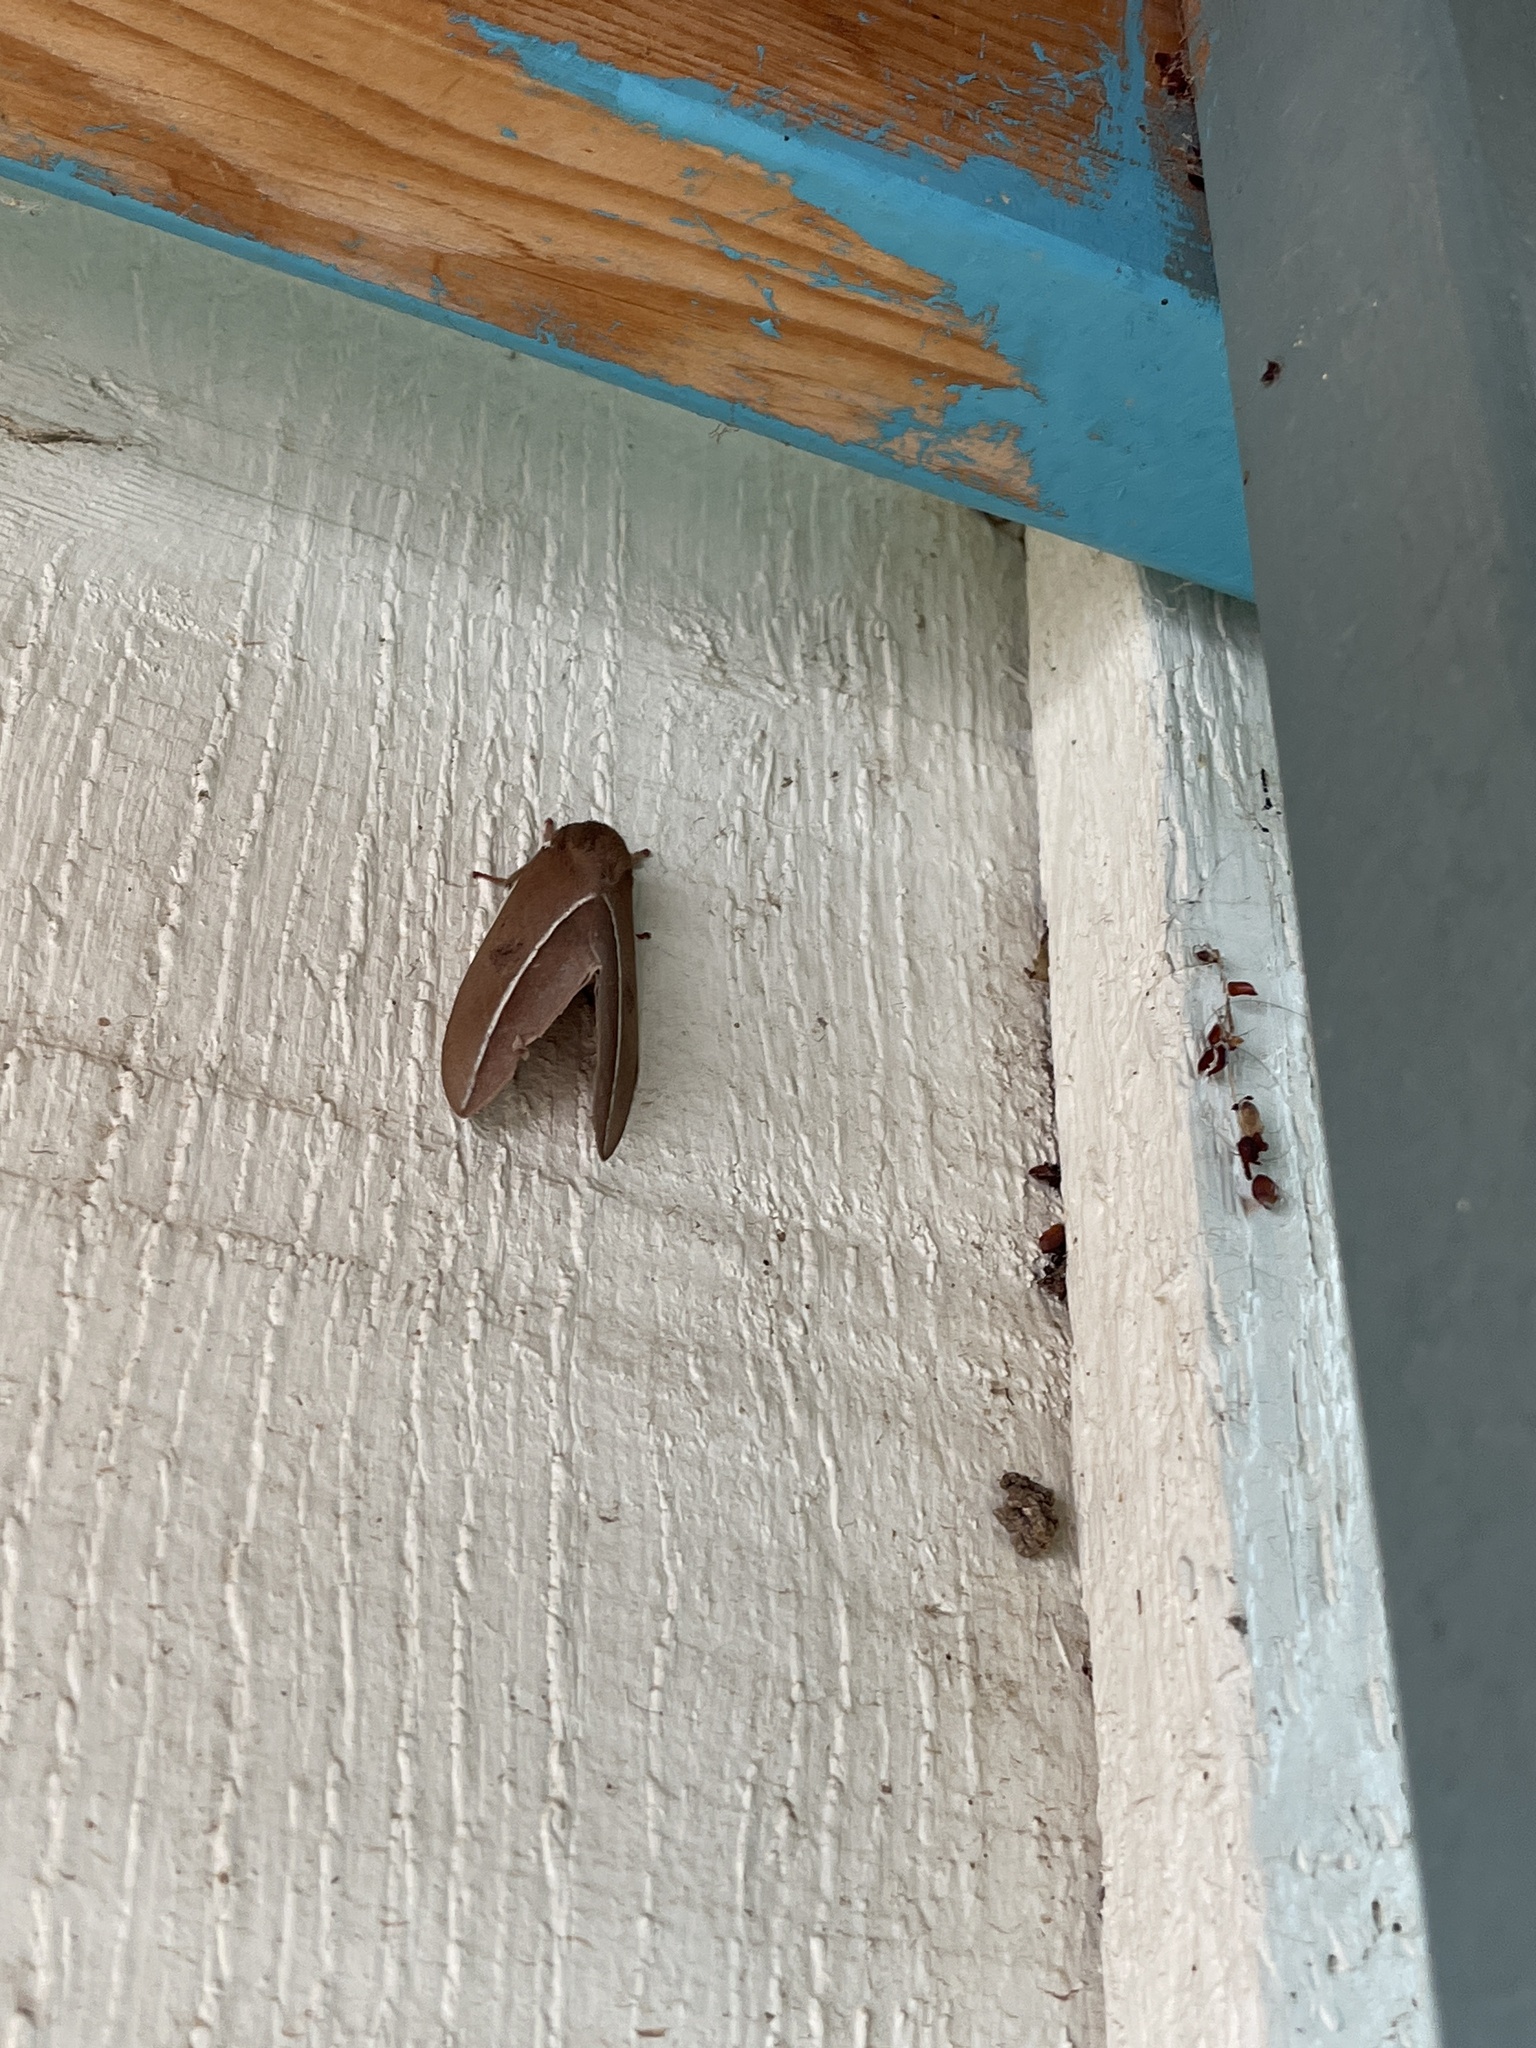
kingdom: Animalia
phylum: Arthropoda
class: Insecta
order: Lepidoptera
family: Saturniidae
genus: Automeris
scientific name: Automeris zephyria
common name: Zephyr eyed silkmoth
